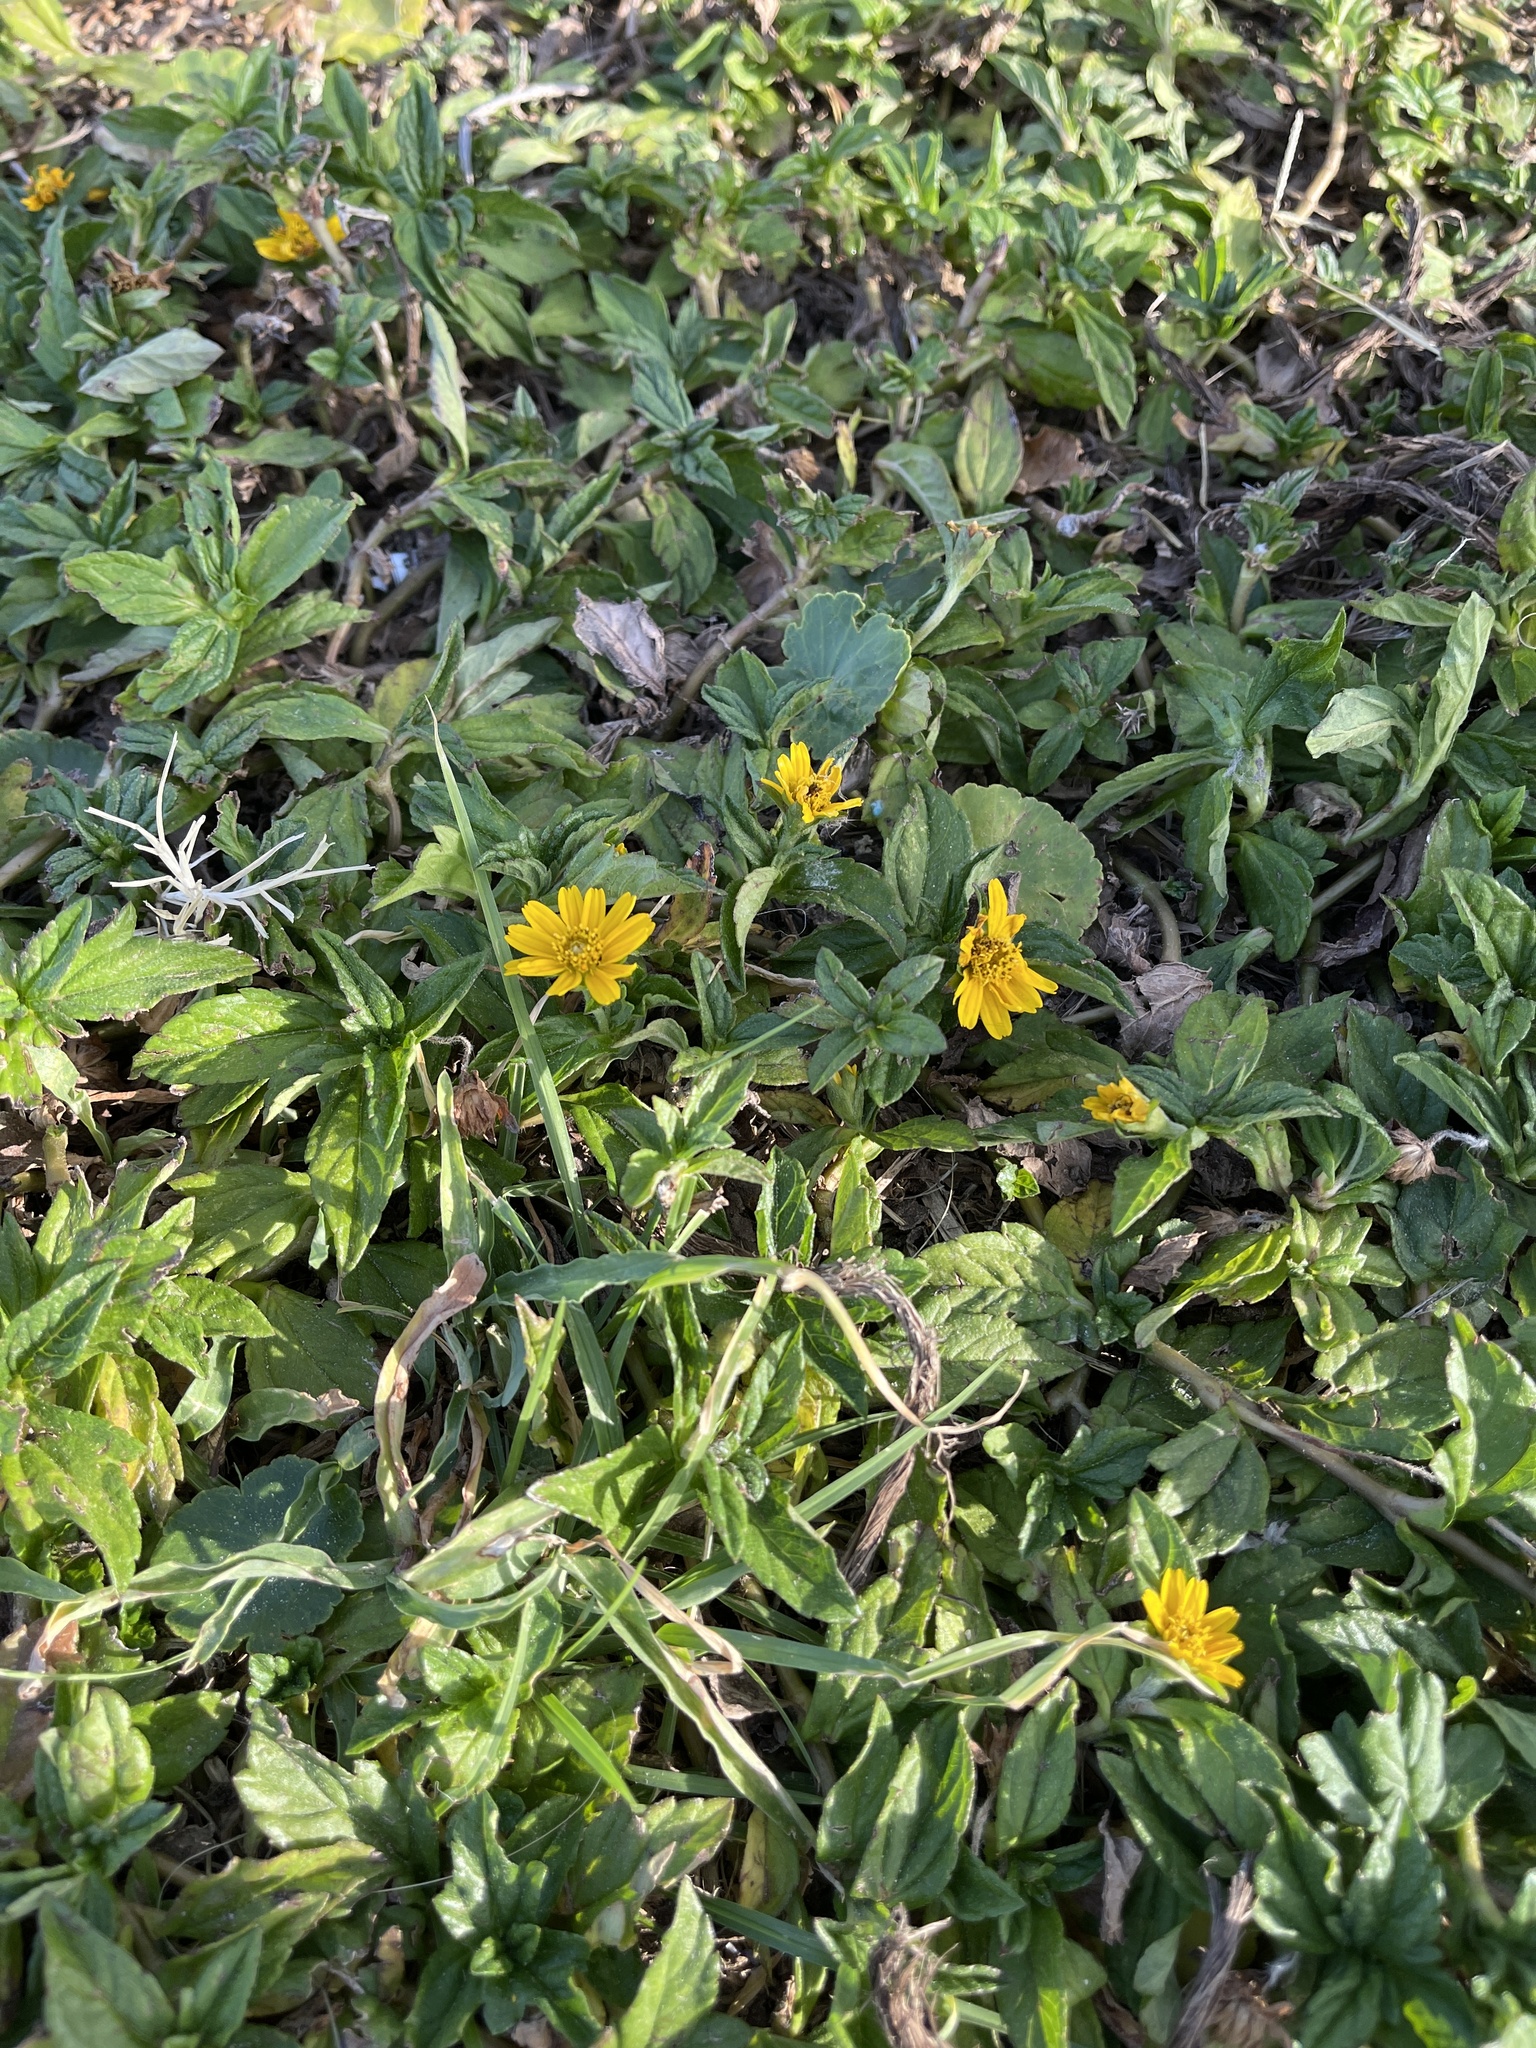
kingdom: Plantae
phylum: Tracheophyta
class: Magnoliopsida
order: Asterales
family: Asteraceae
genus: Sphagneticola
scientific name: Sphagneticola trilobata
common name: Bay biscayne creeping-oxeye
